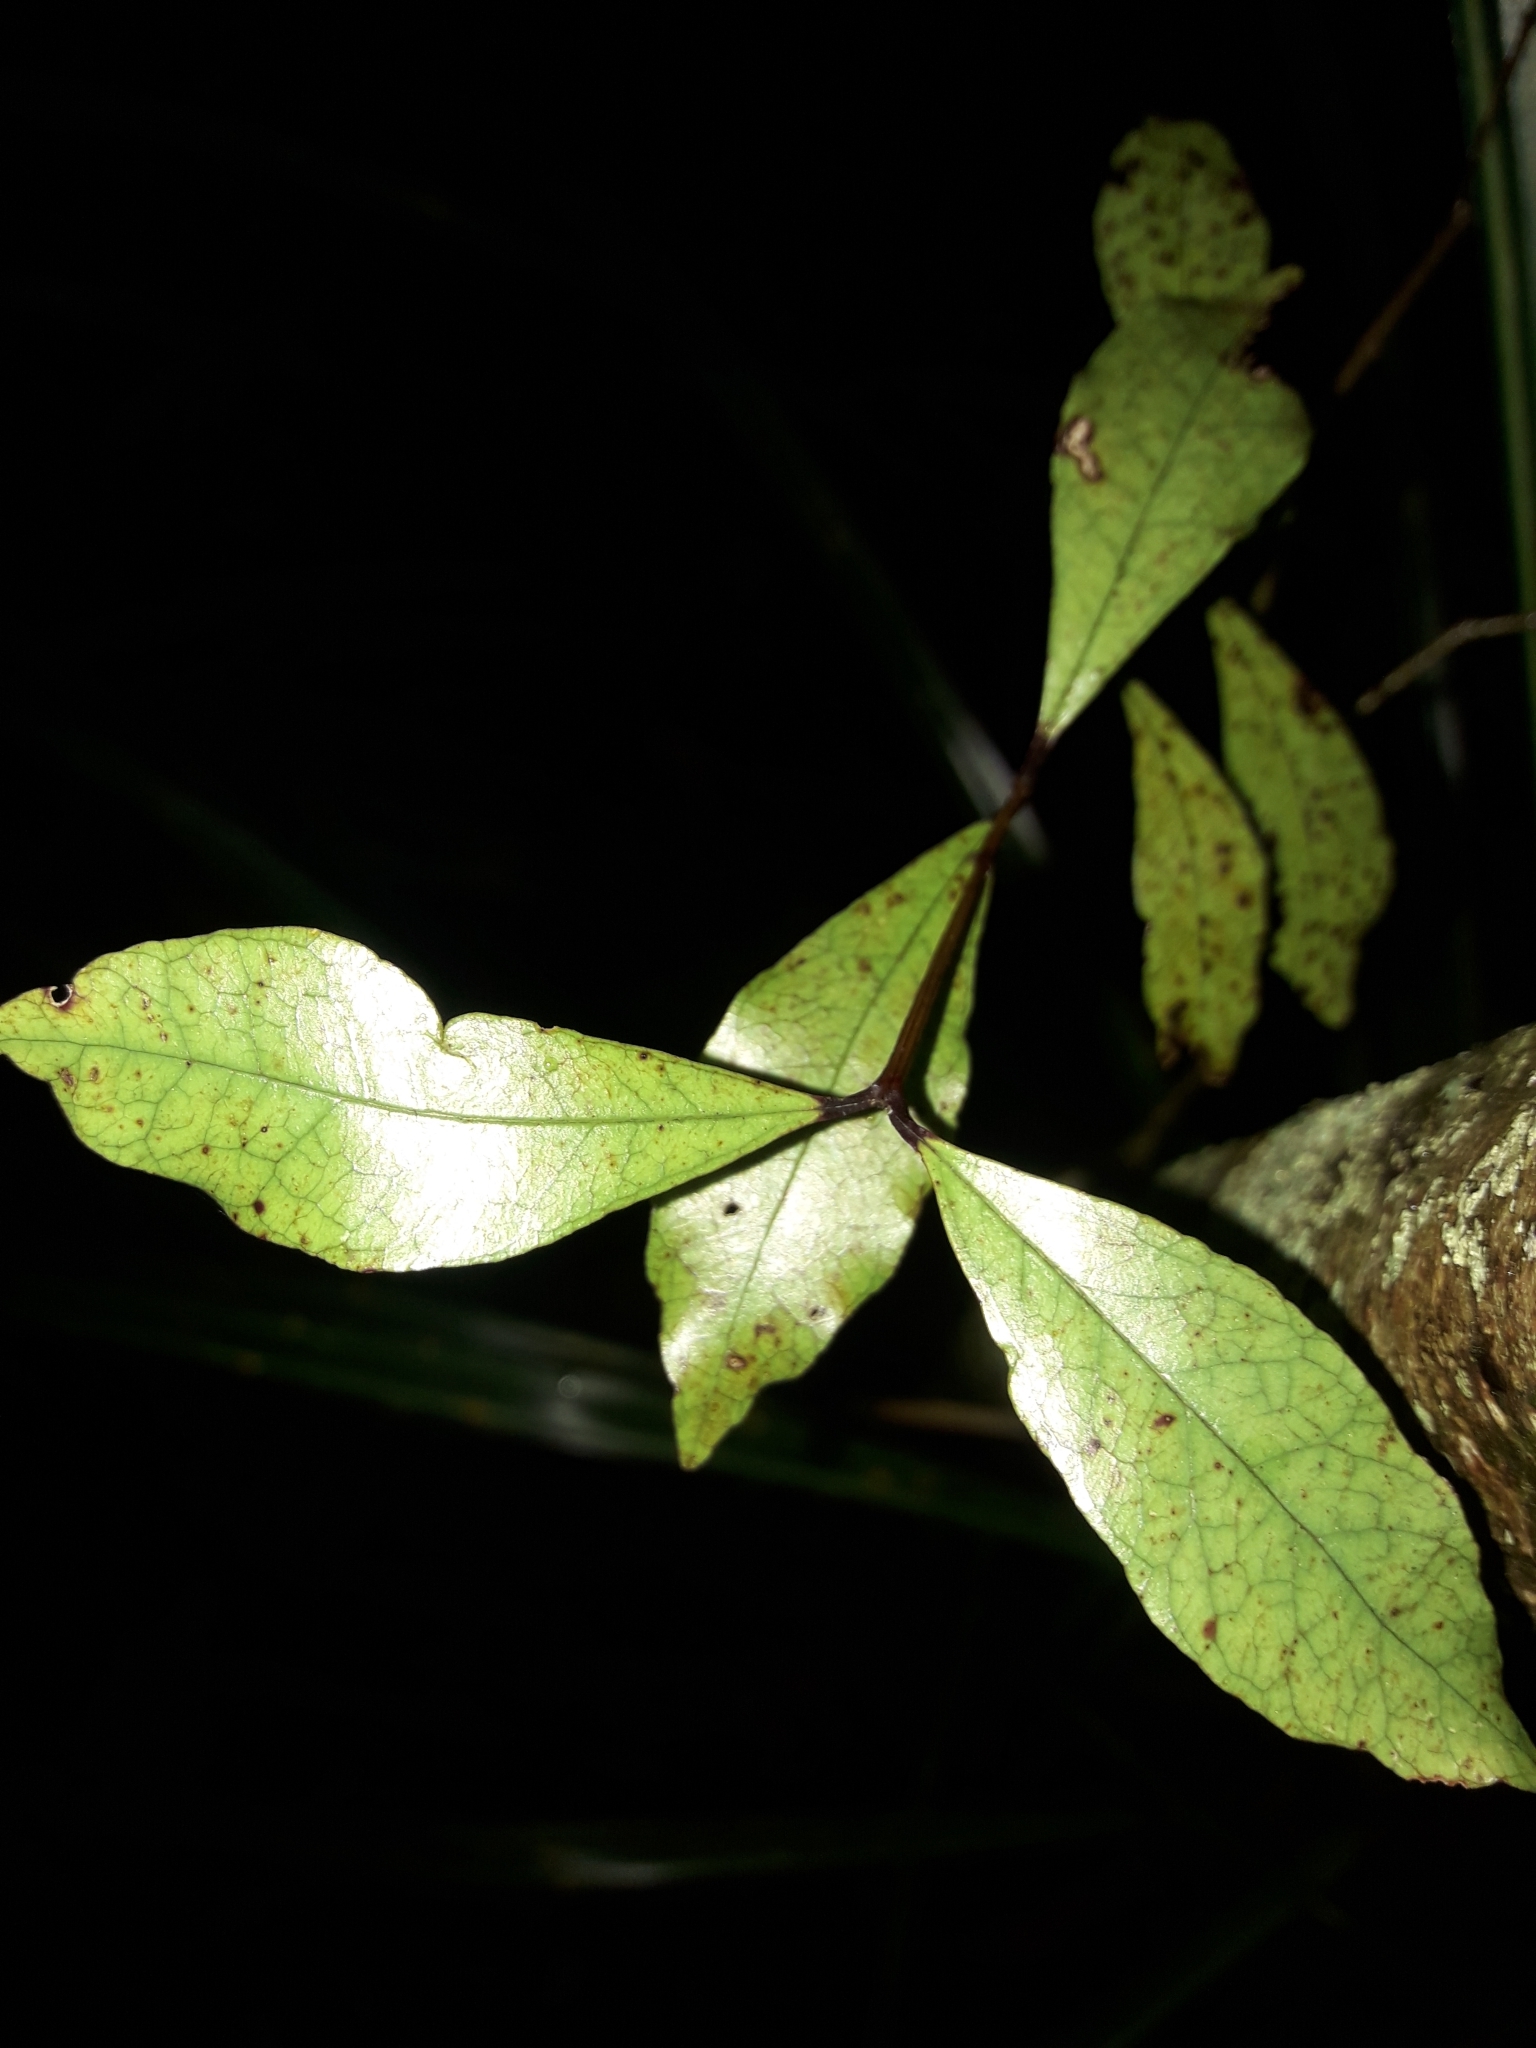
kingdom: Plantae
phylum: Tracheophyta
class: Magnoliopsida
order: Myrtales
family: Myrtaceae
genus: Syzygium
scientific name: Syzygium maire
